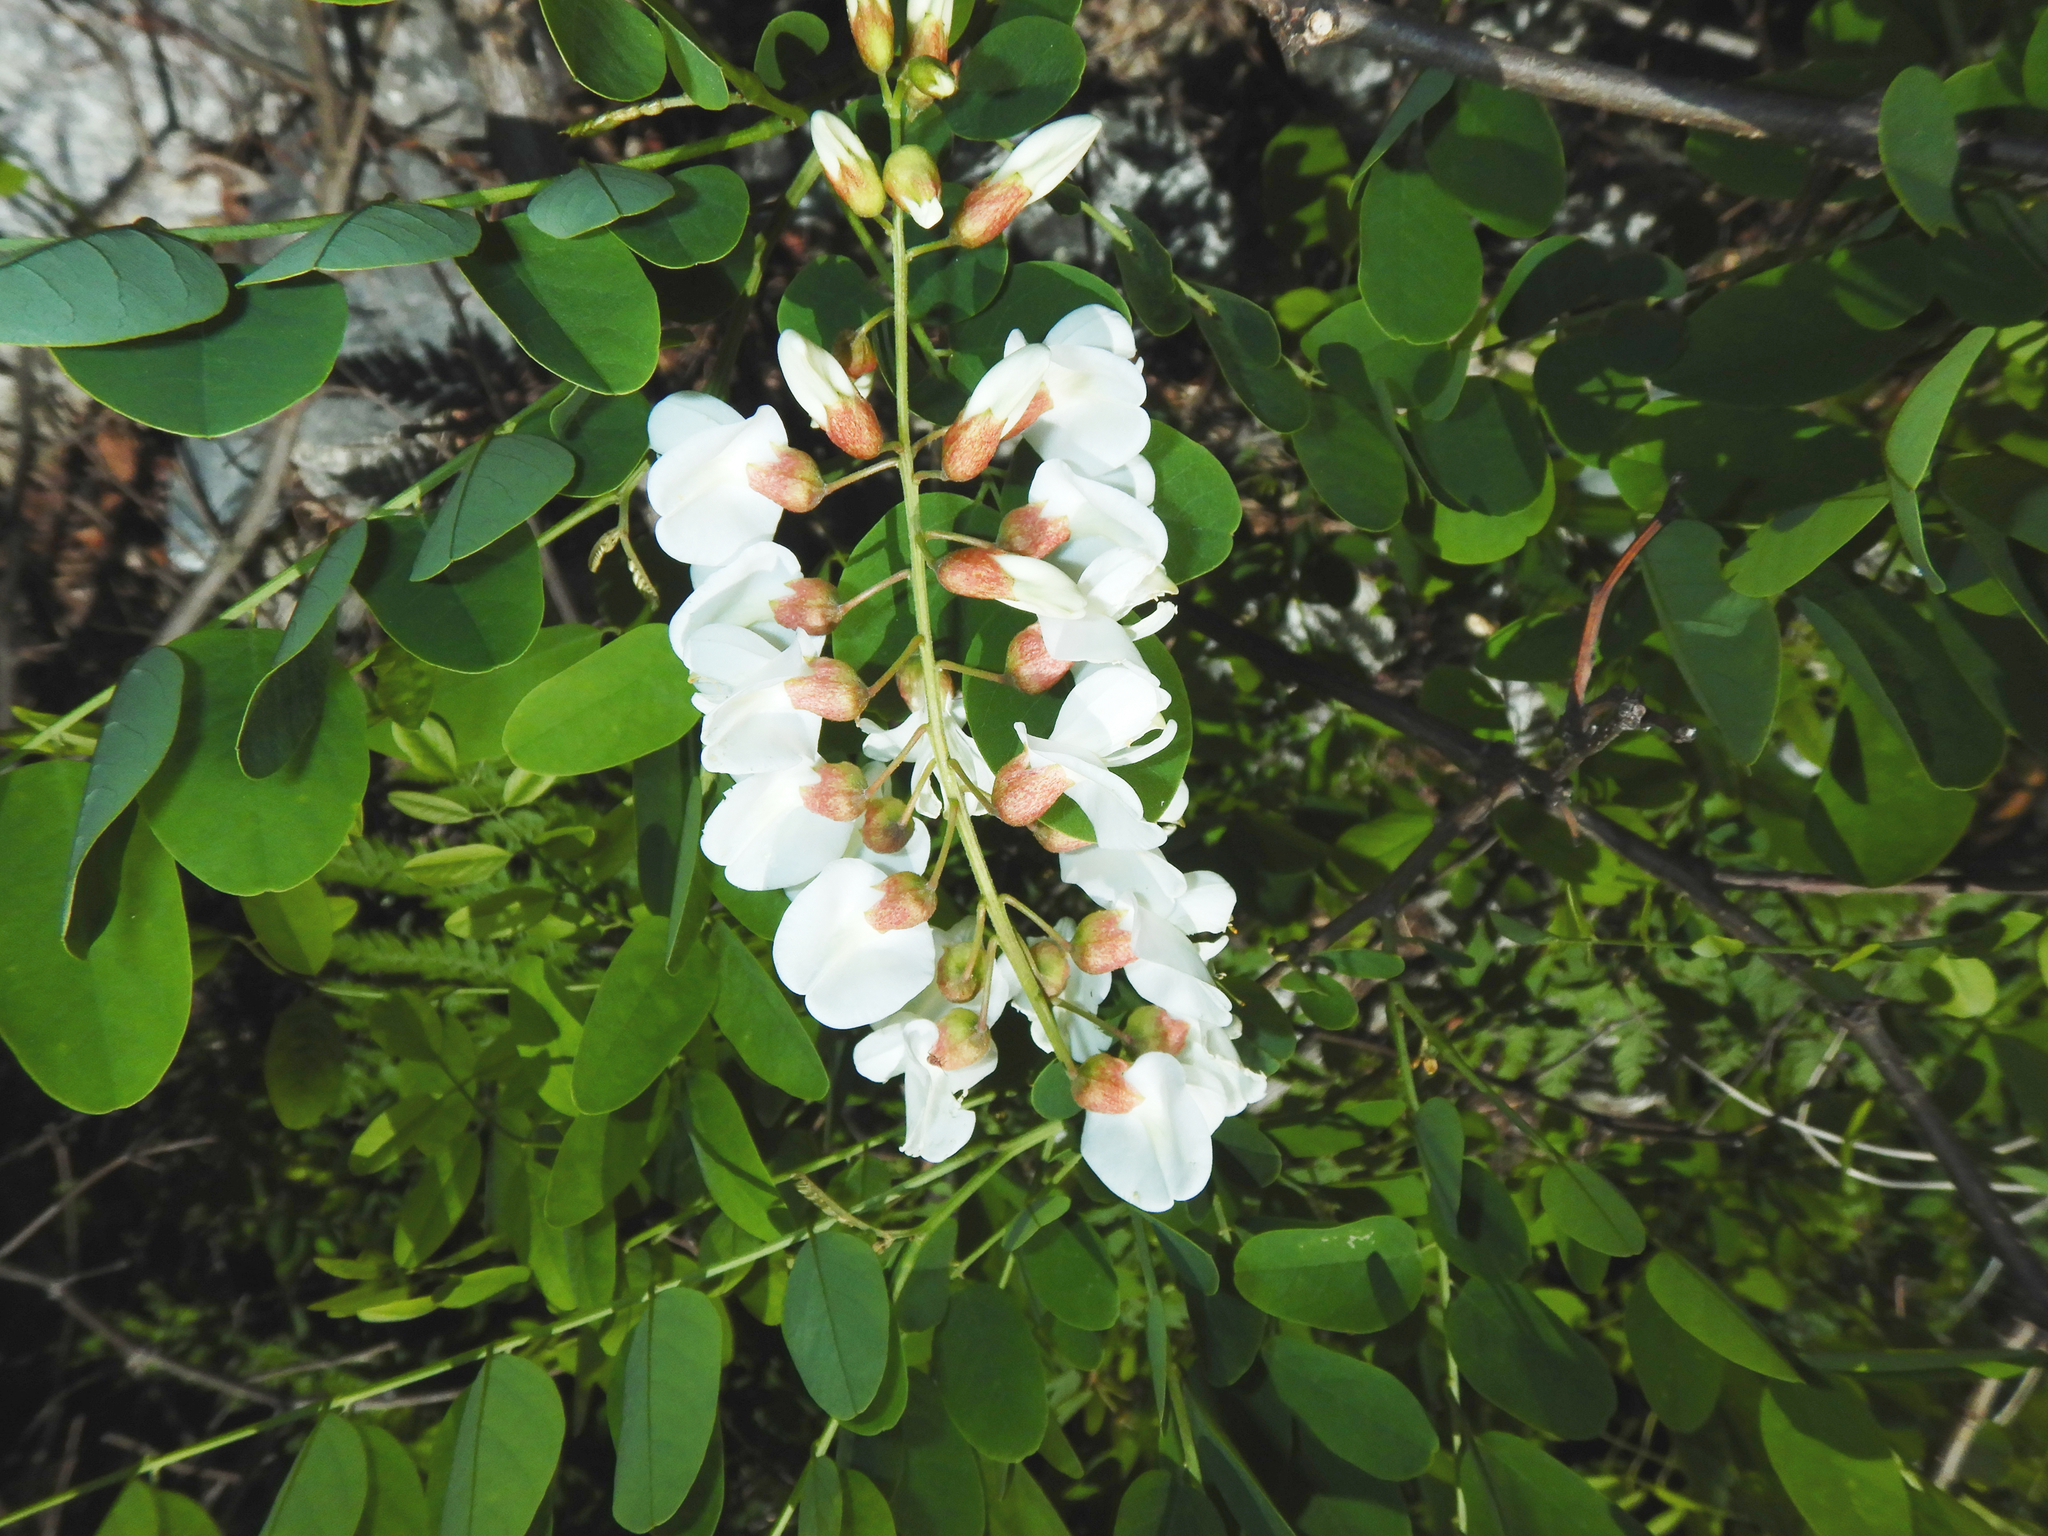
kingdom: Plantae
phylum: Tracheophyta
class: Magnoliopsida
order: Fabales
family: Fabaceae
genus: Robinia
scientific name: Robinia pseudoacacia
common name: Black locust
